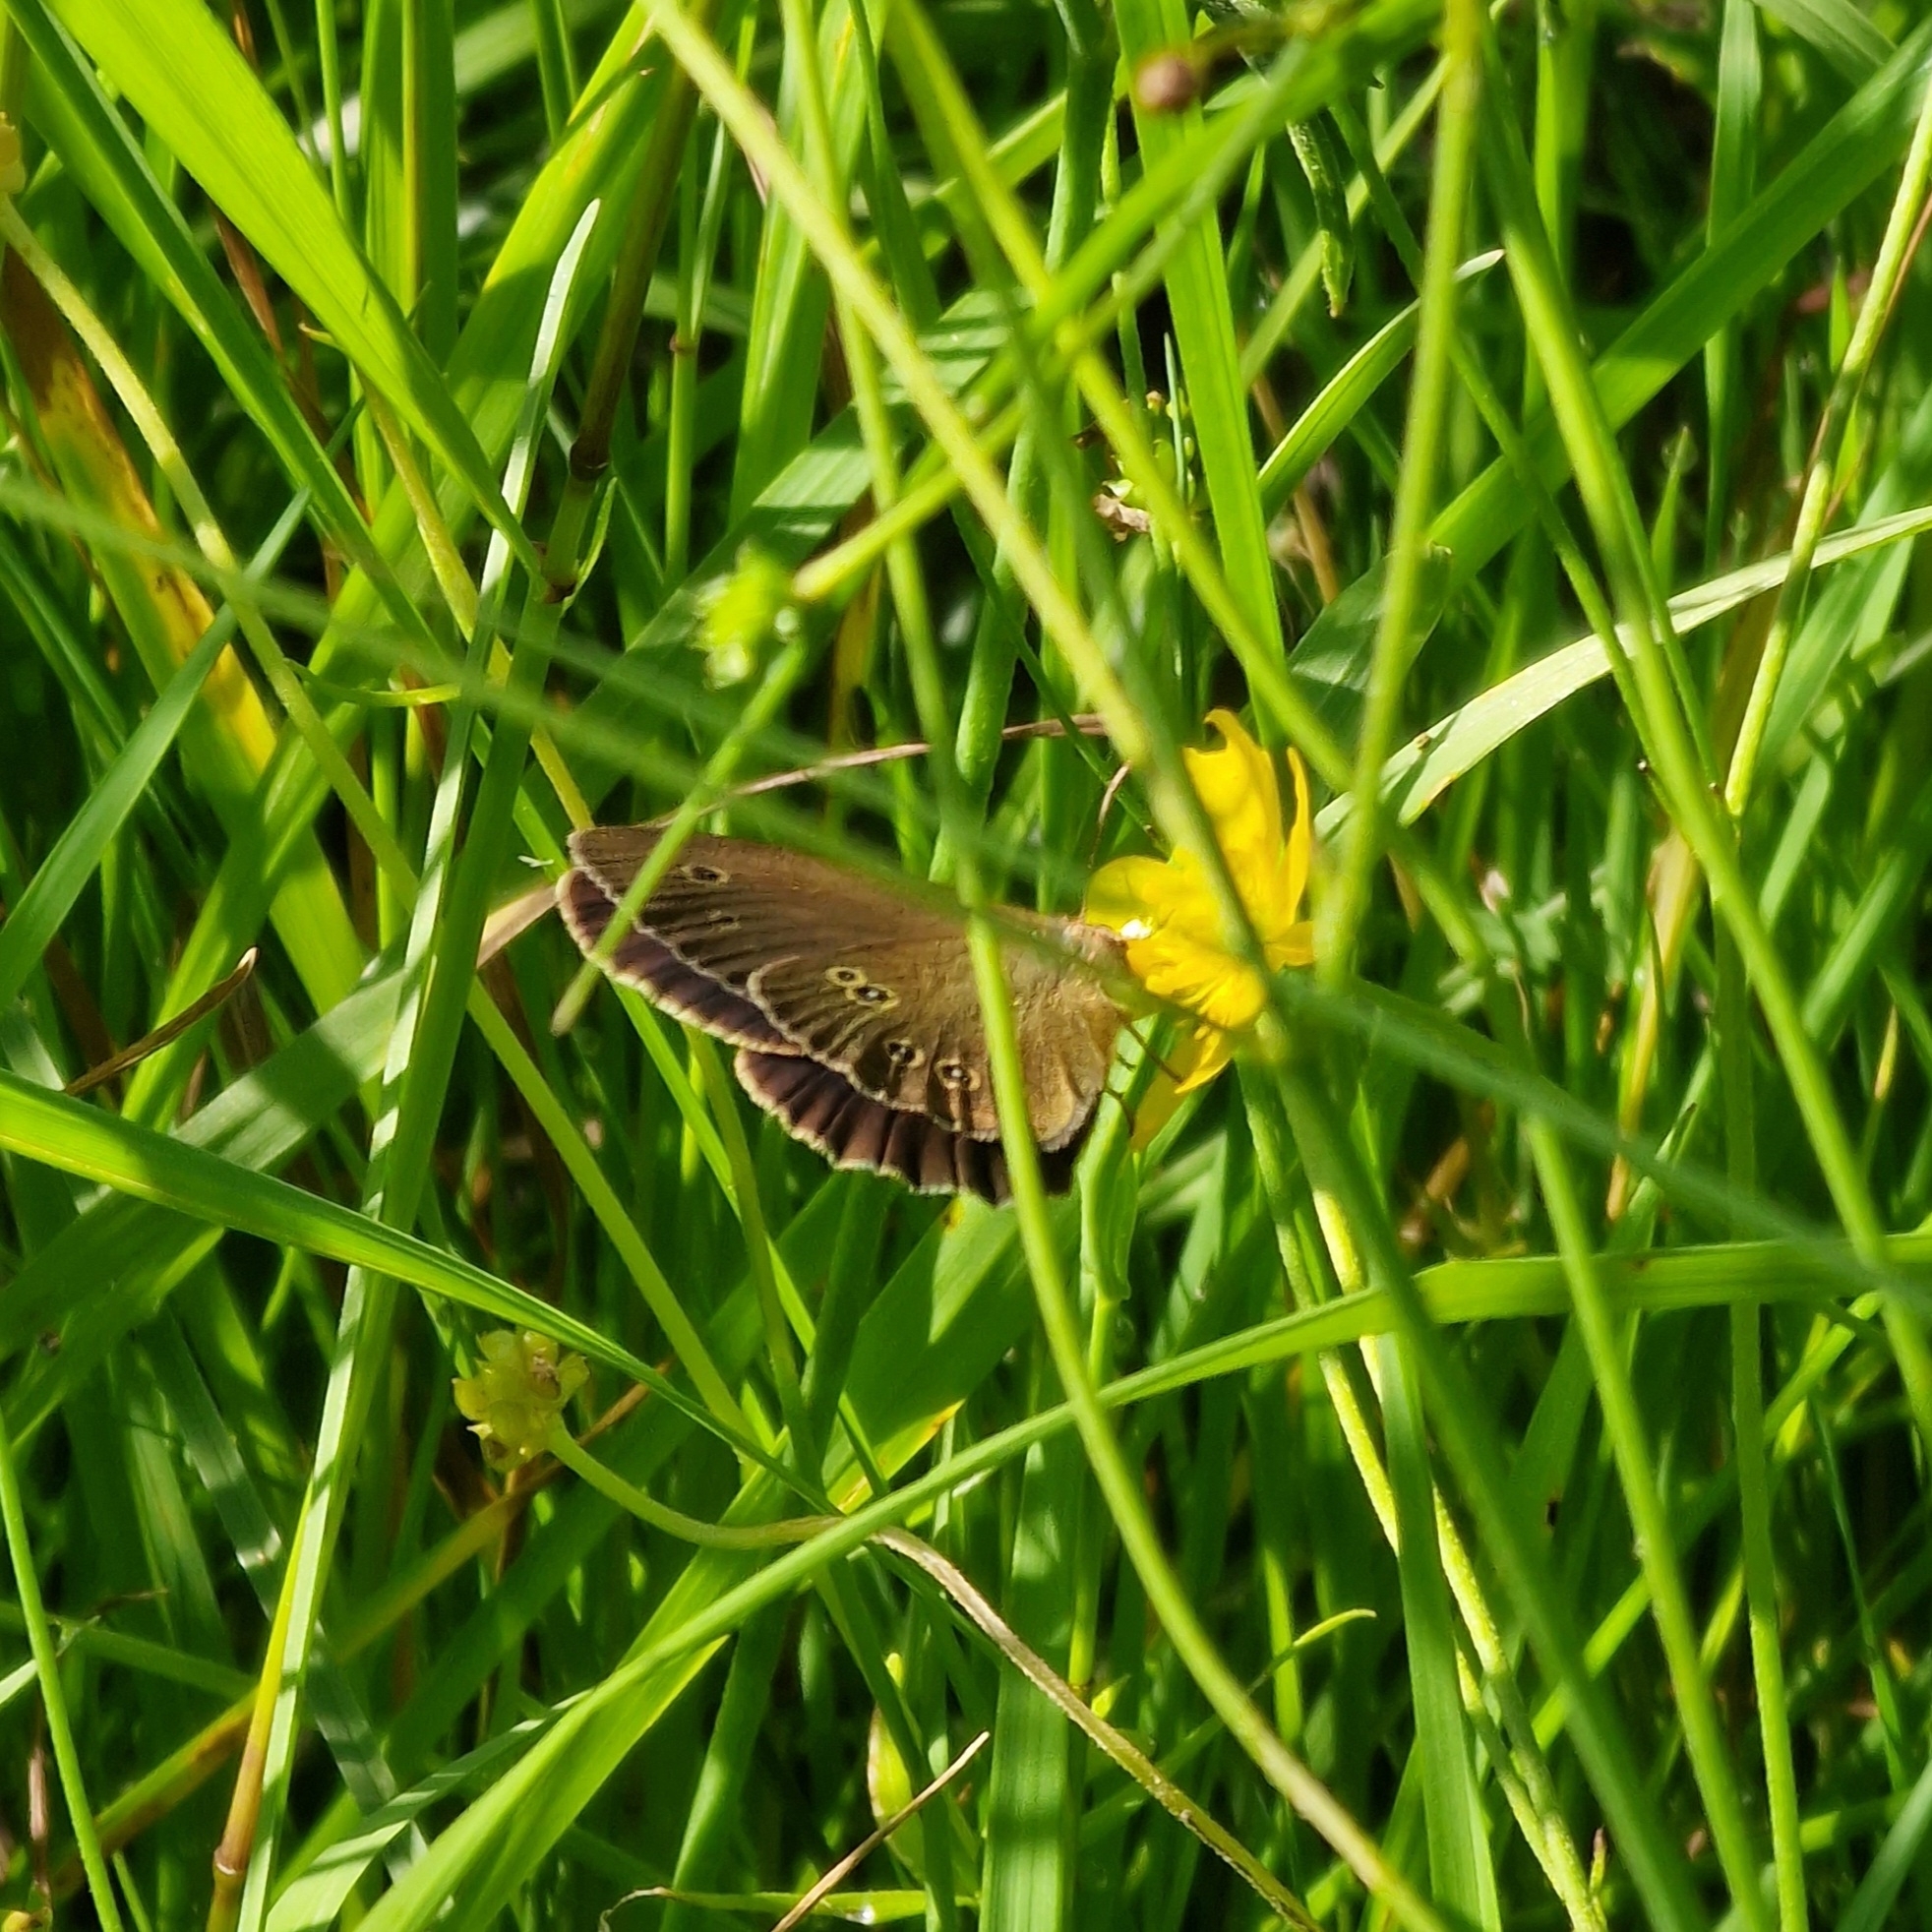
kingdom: Animalia
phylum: Arthropoda
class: Insecta
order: Lepidoptera
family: Nymphalidae
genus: Aphantopus
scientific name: Aphantopus hyperantus
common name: Ringlet
